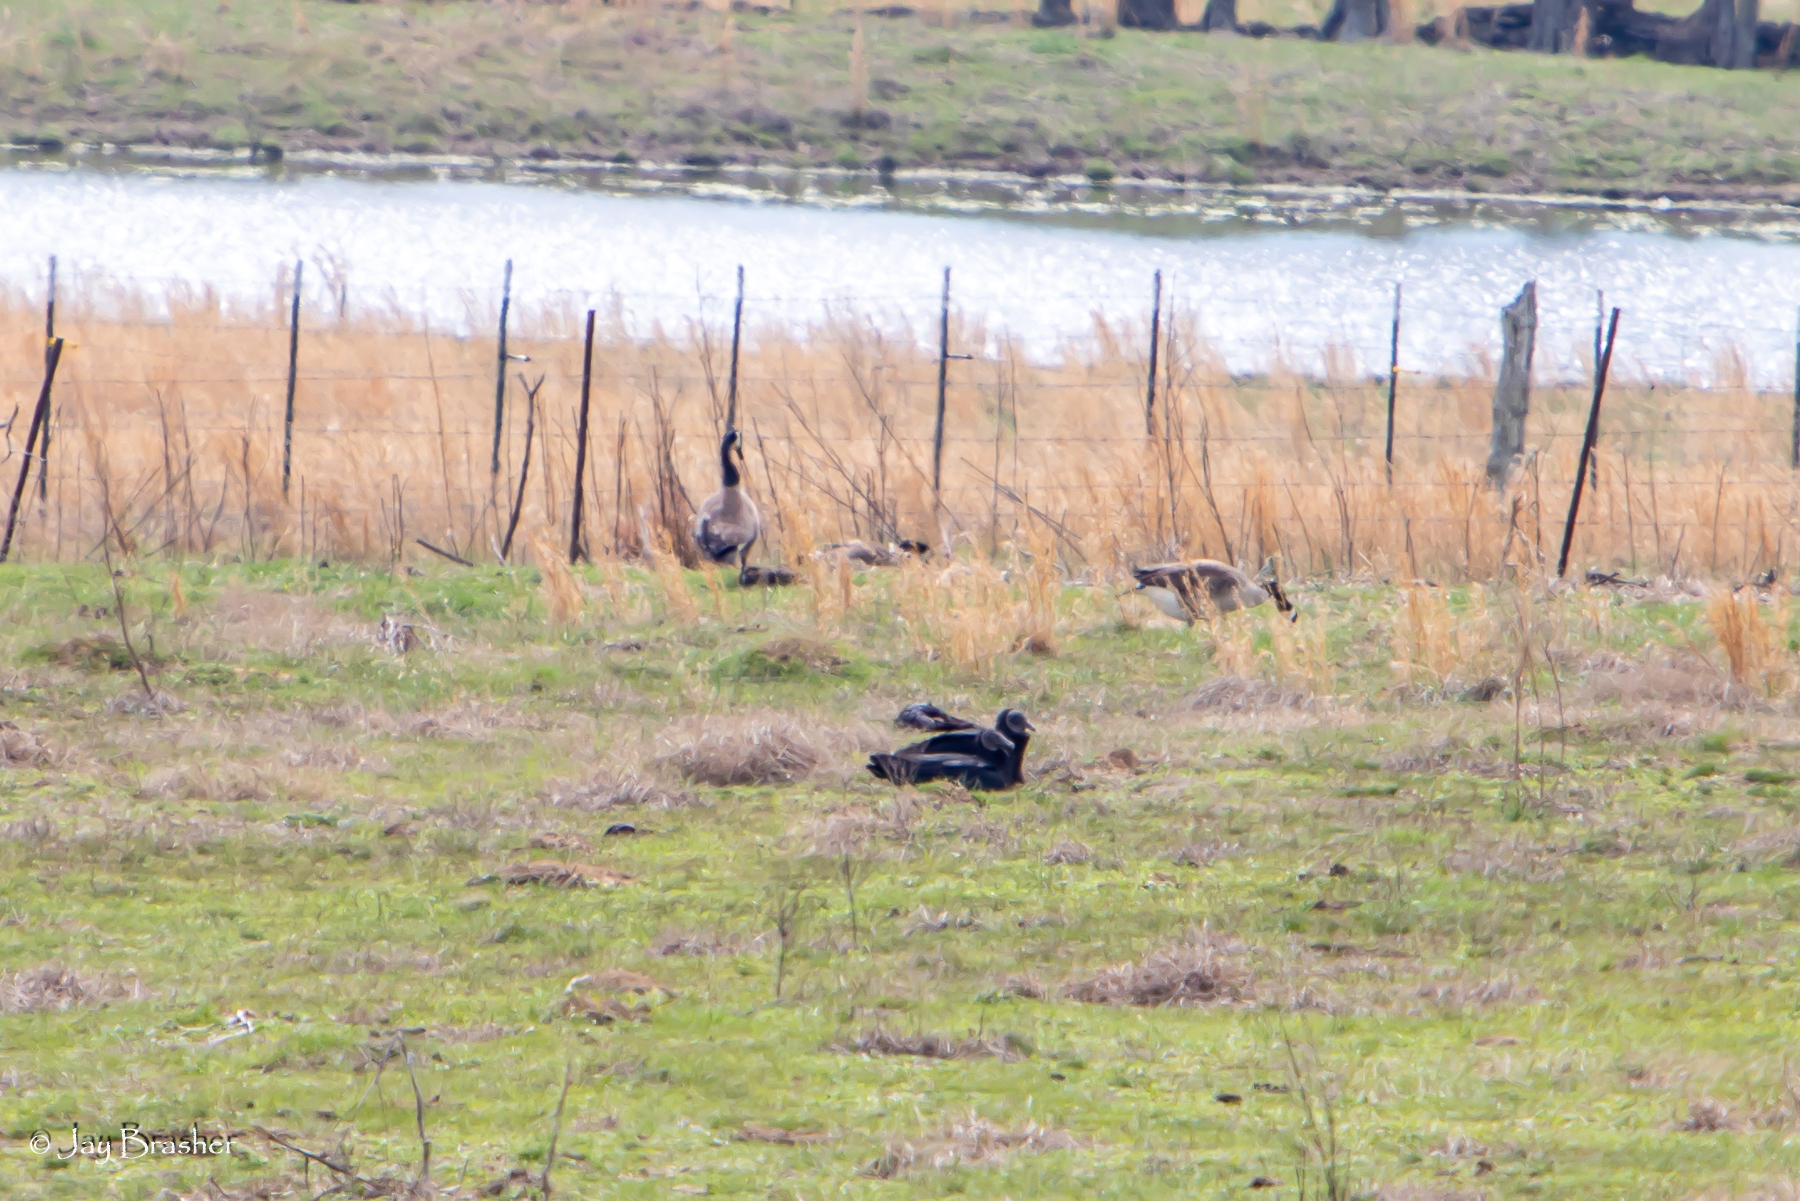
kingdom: Animalia
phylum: Chordata
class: Aves
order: Anseriformes
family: Anatidae
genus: Branta
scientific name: Branta canadensis
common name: Canada goose
